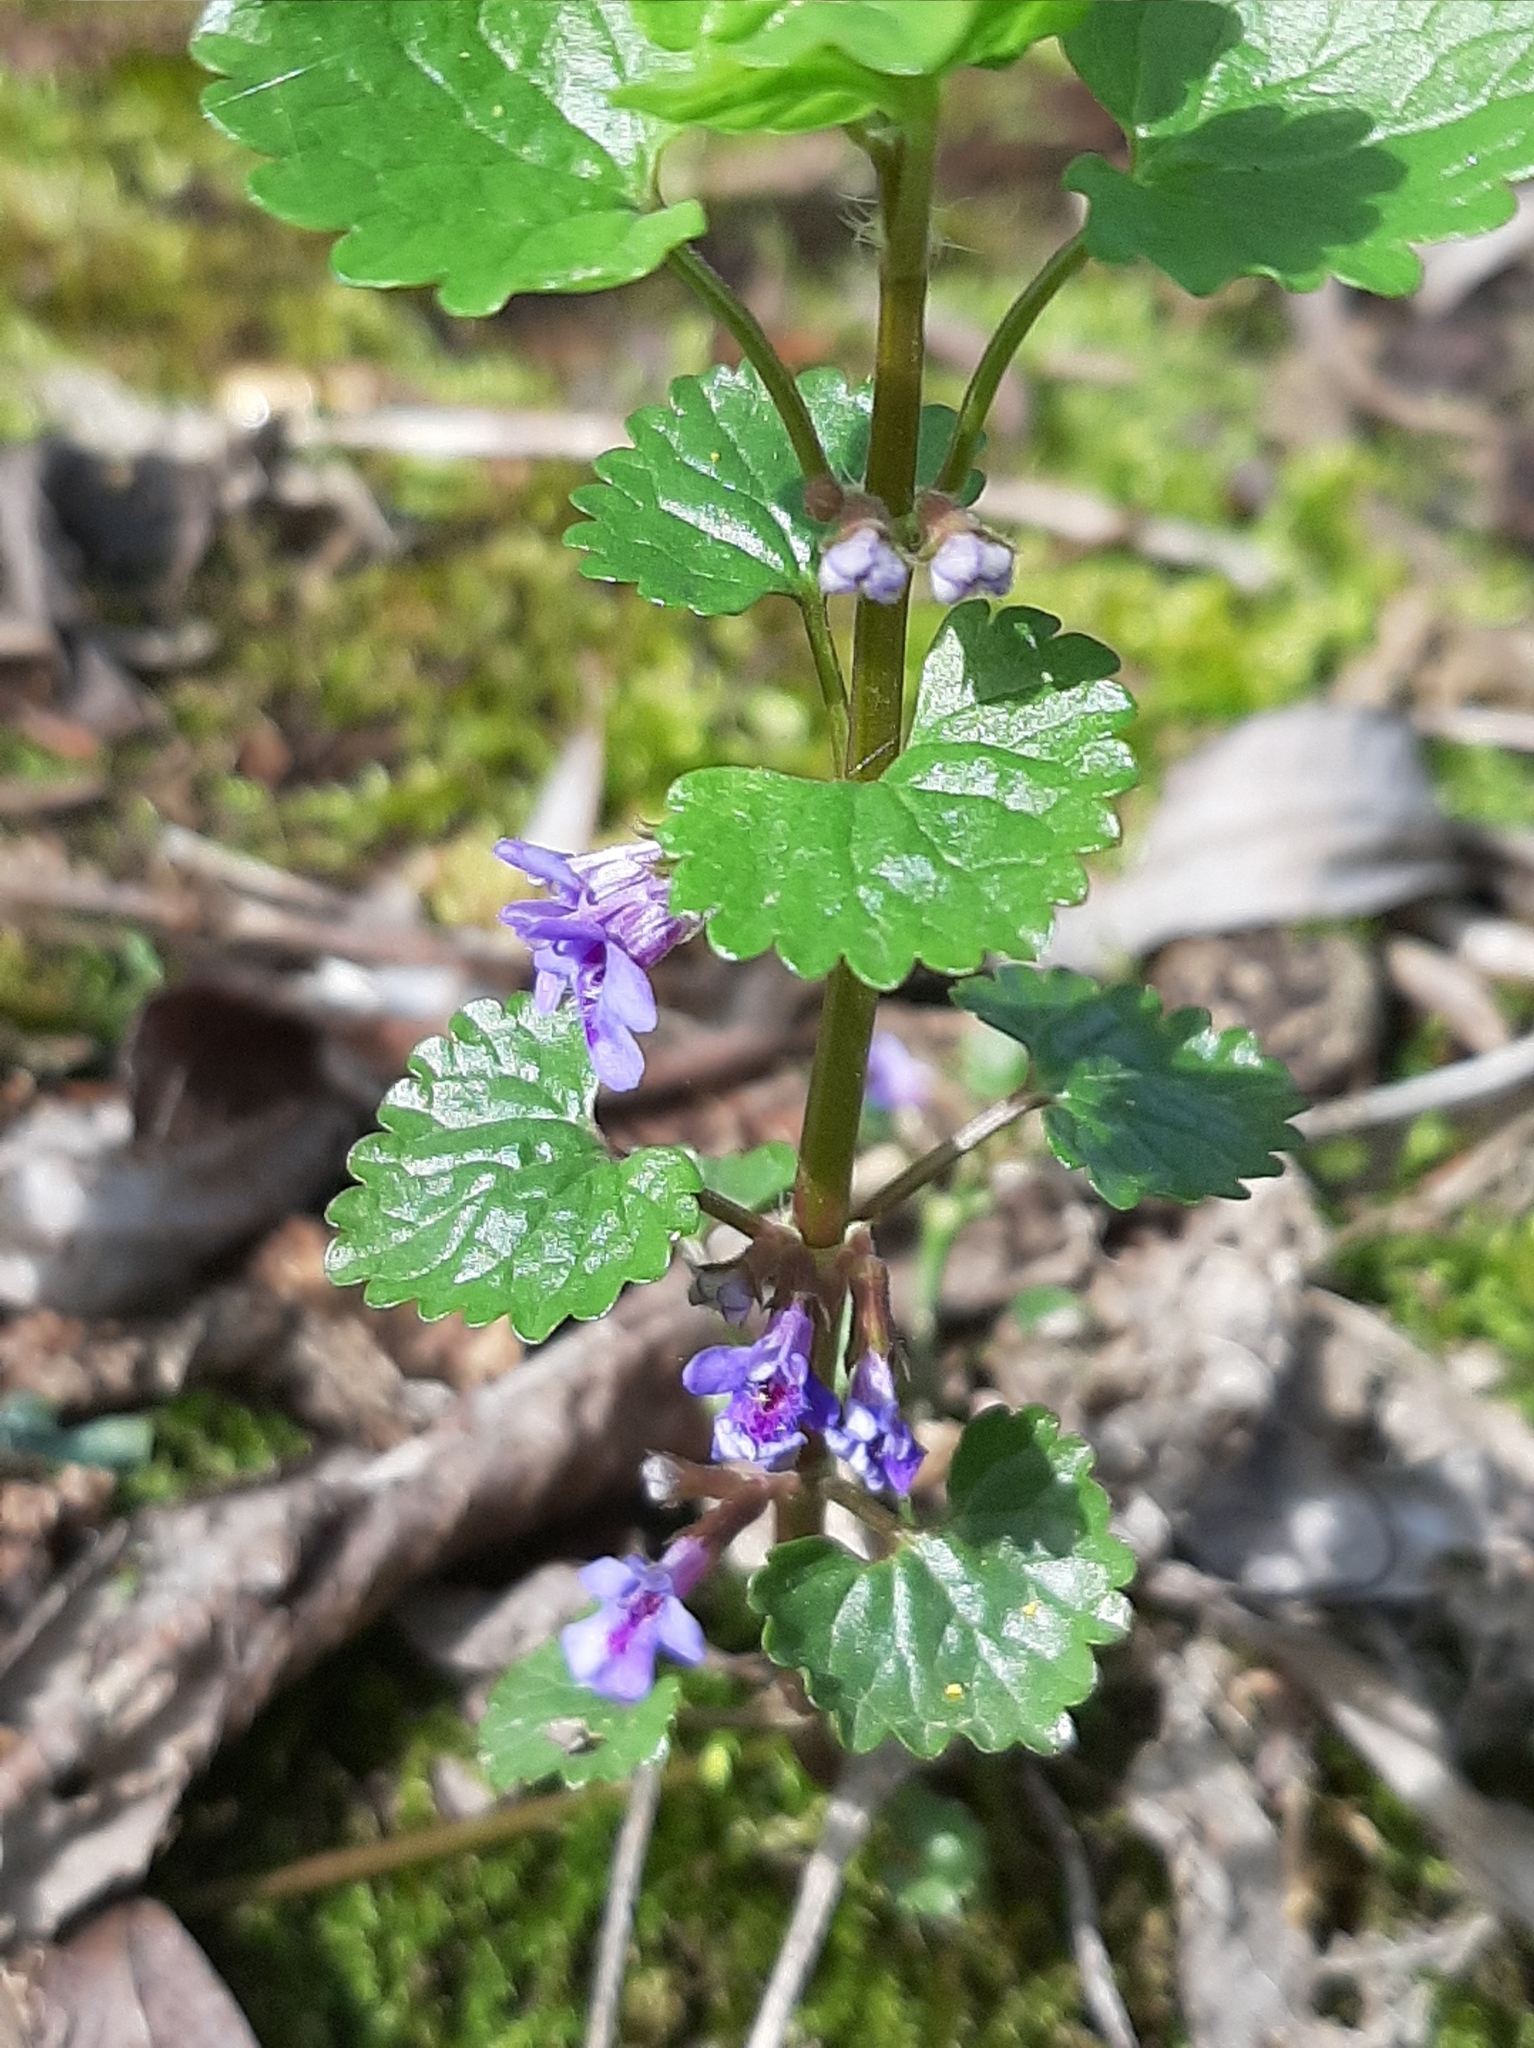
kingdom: Plantae
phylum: Tracheophyta
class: Magnoliopsida
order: Lamiales
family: Lamiaceae
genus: Glechoma
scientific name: Glechoma hederacea
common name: Ground ivy
